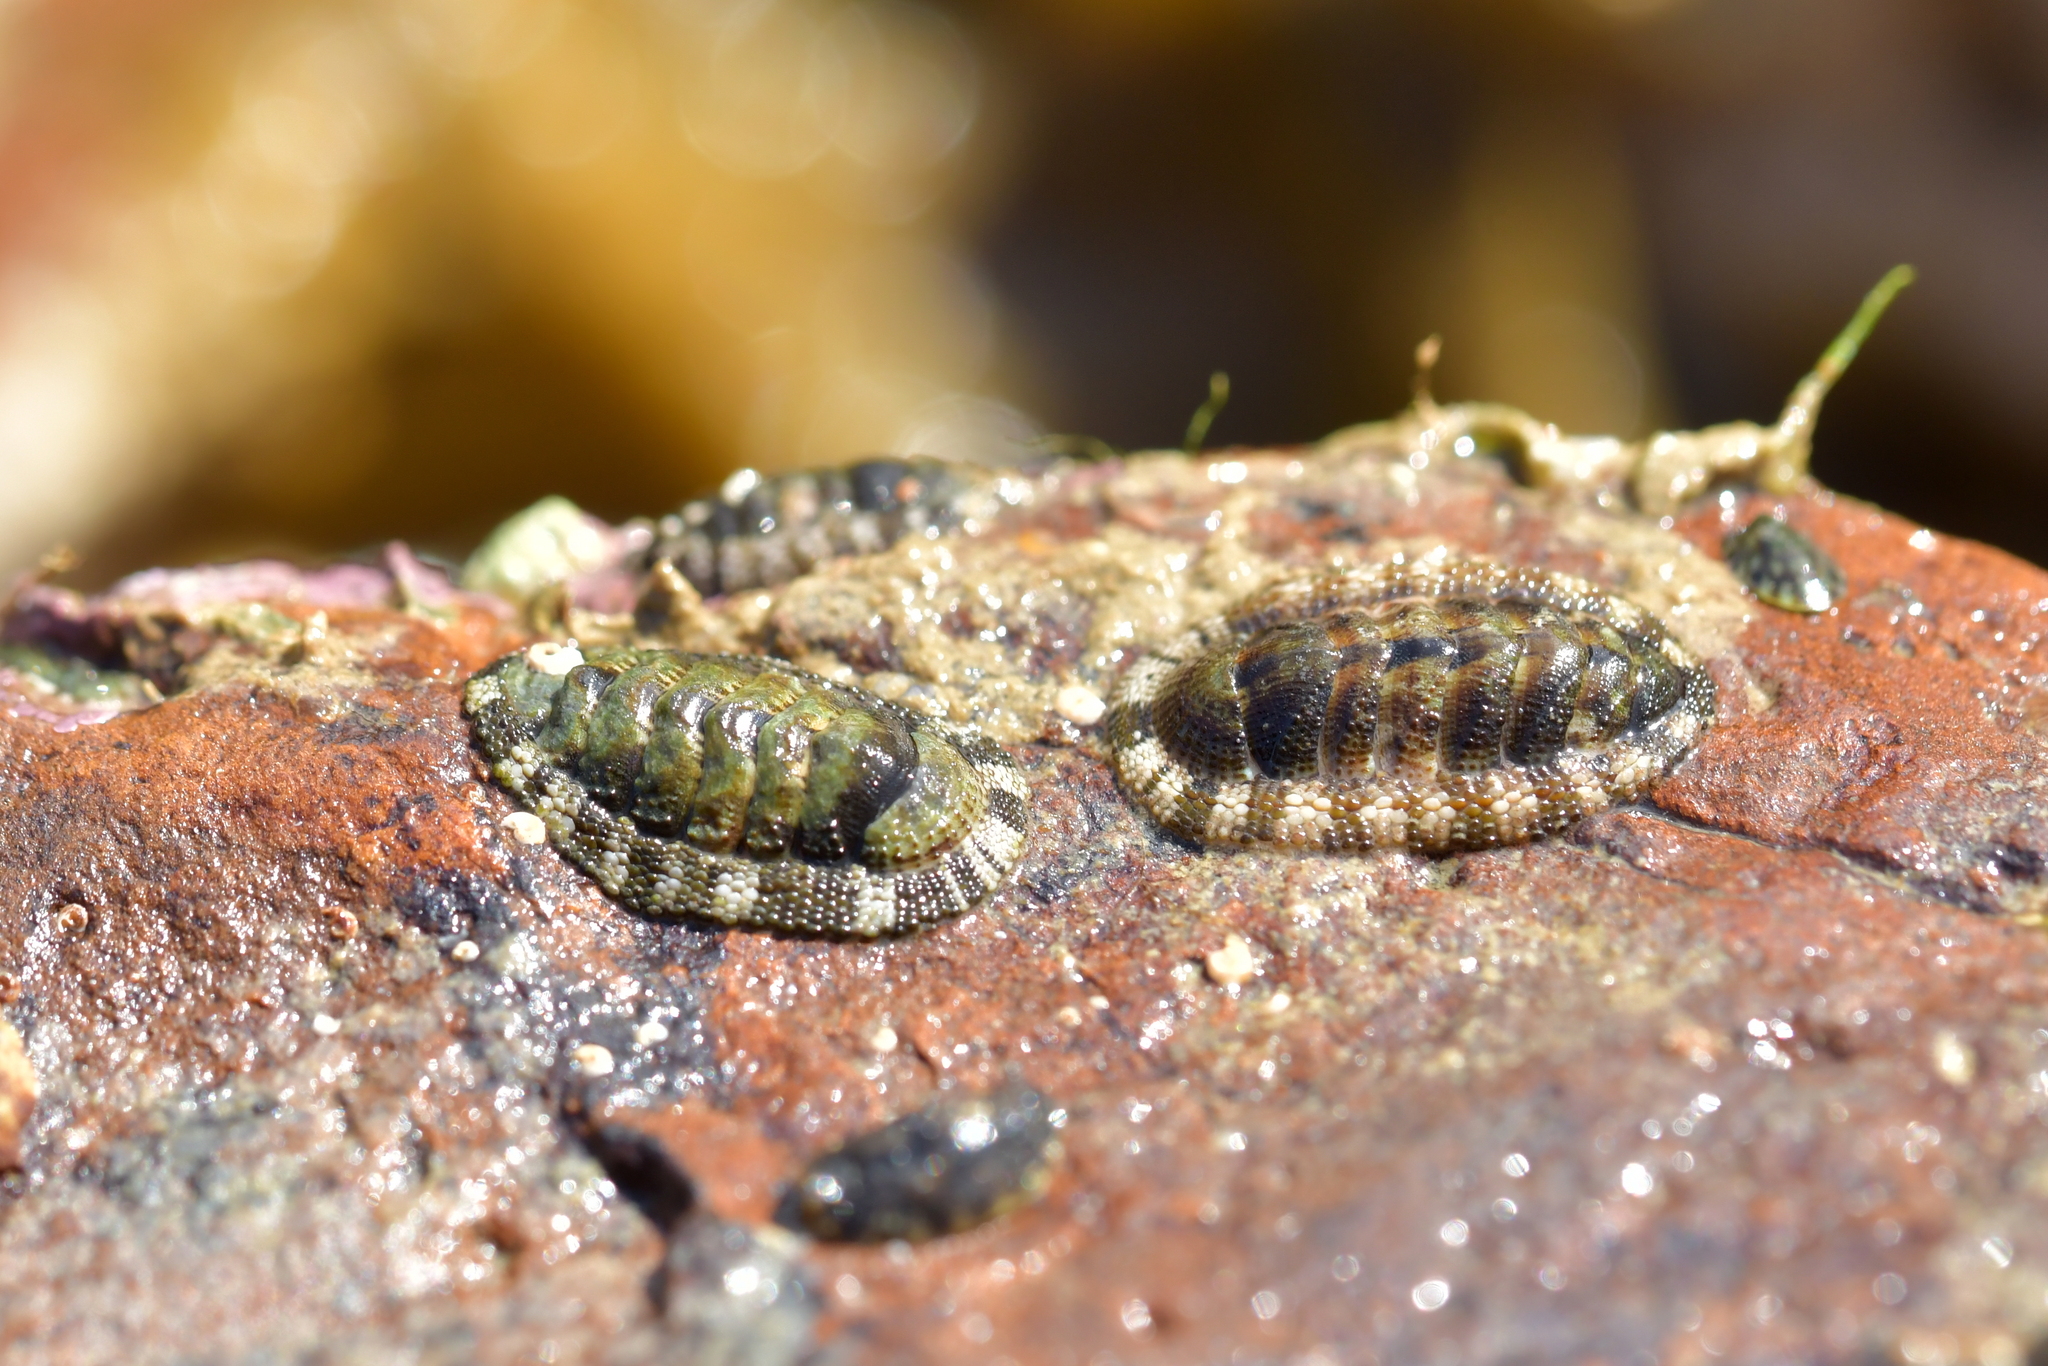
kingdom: Animalia
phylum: Mollusca
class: Polyplacophora
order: Chitonida
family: Chitonidae
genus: Sypharochiton
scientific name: Sypharochiton pelliserpentis
